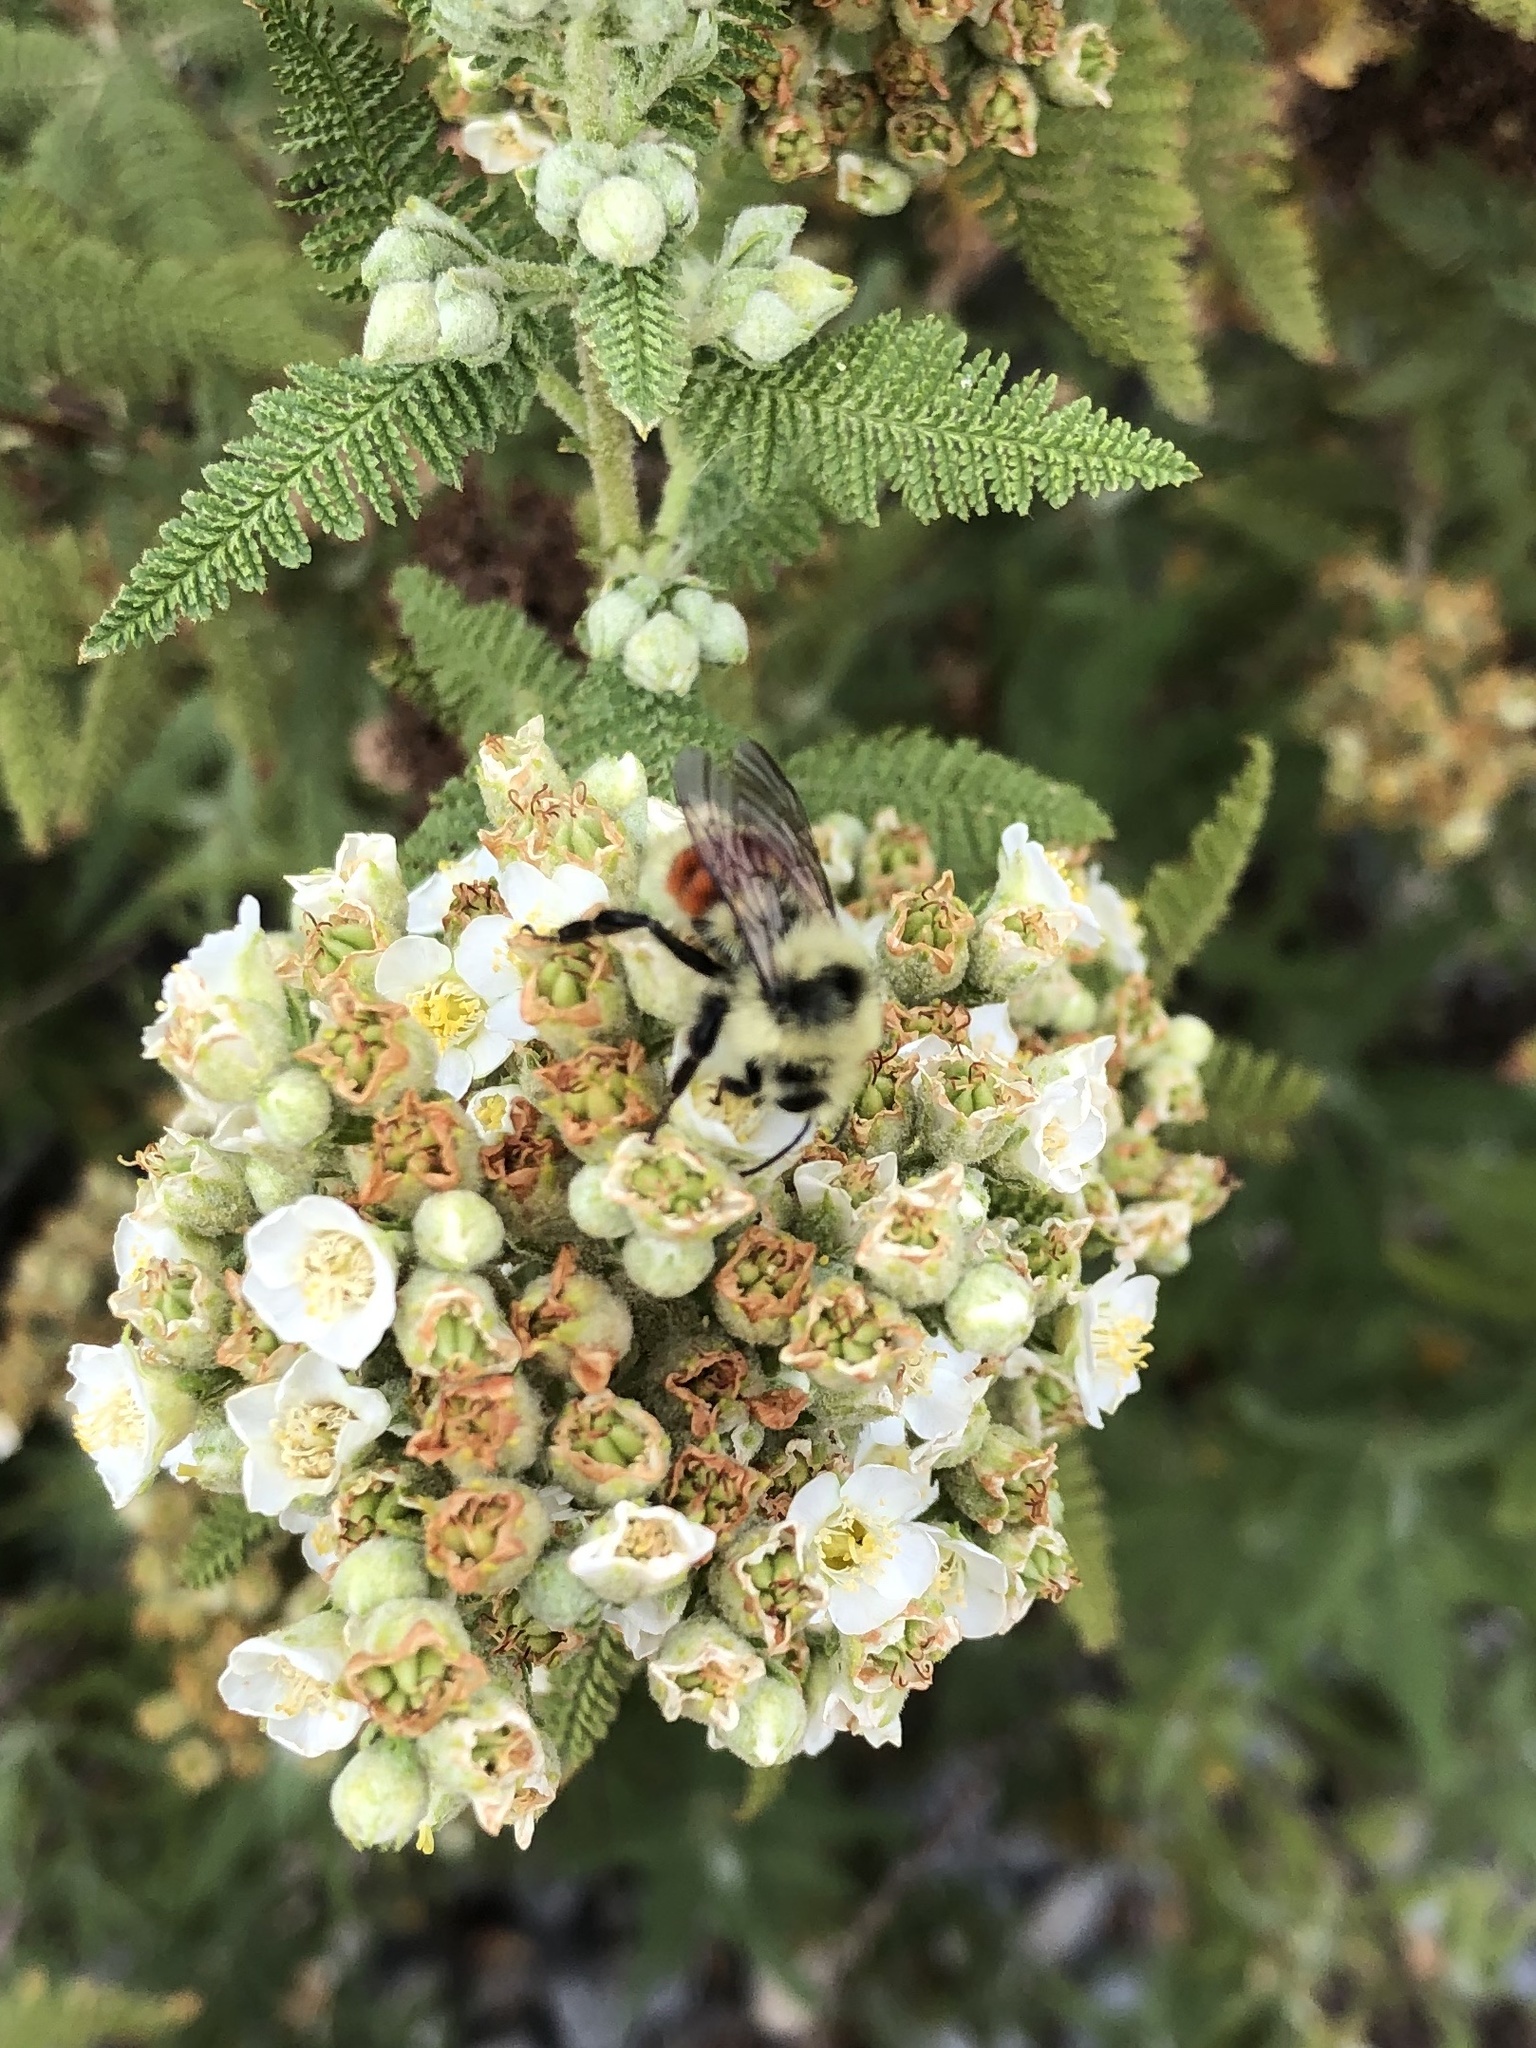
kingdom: Animalia
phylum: Arthropoda
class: Insecta
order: Hymenoptera
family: Apidae
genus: Bombus
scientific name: Bombus huntii
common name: Hunt bumble bee
